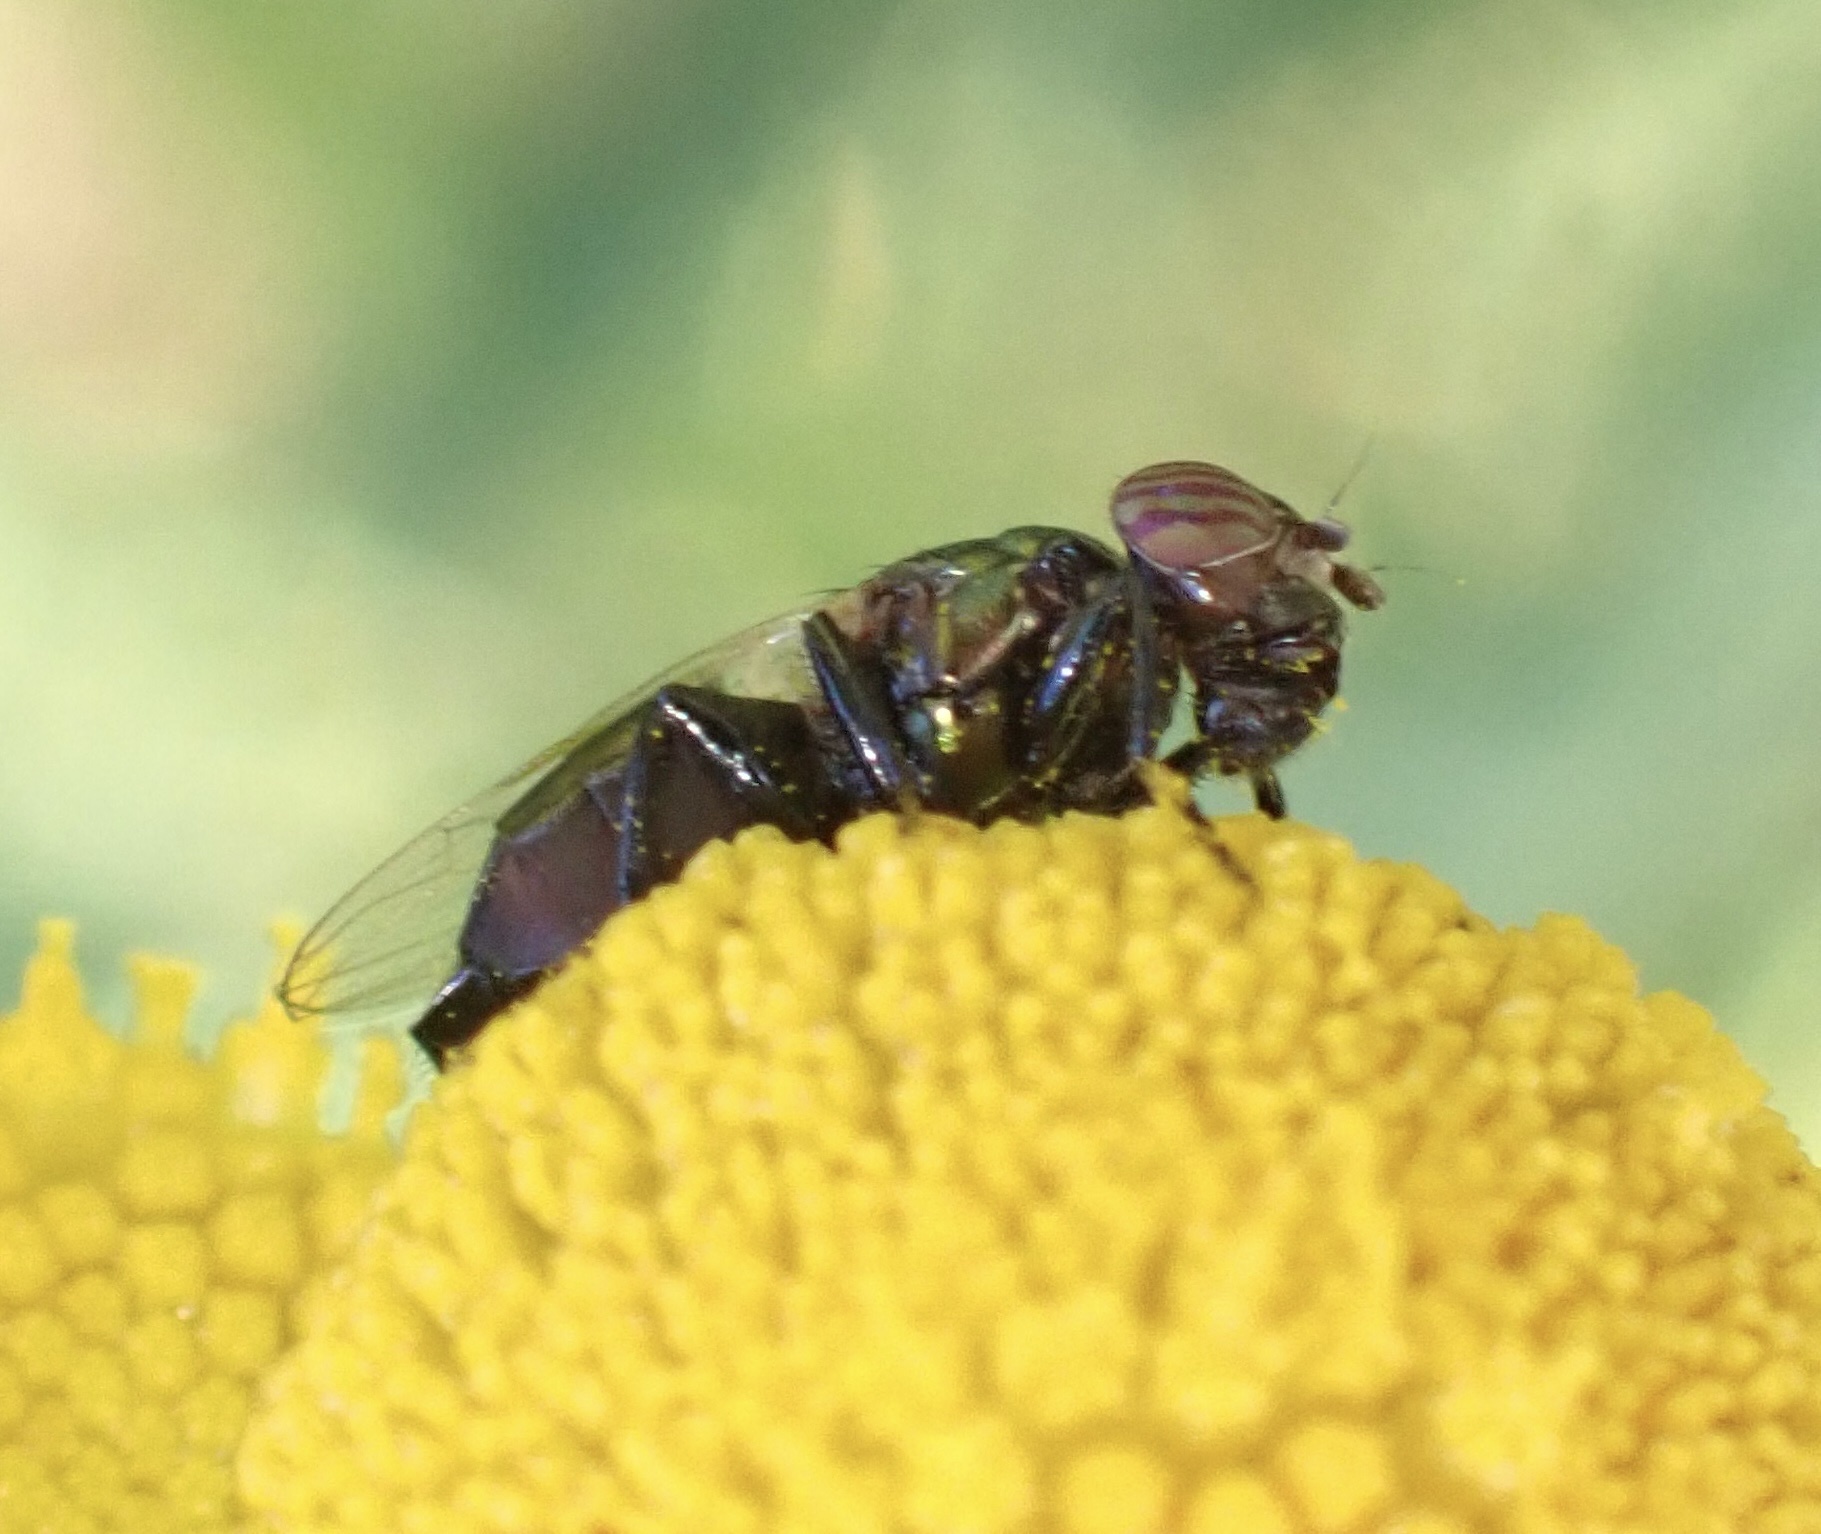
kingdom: Animalia
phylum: Arthropoda
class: Insecta
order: Diptera
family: Ulidiidae
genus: Physiphora
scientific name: Physiphora alceae
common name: Picture-winged fly
